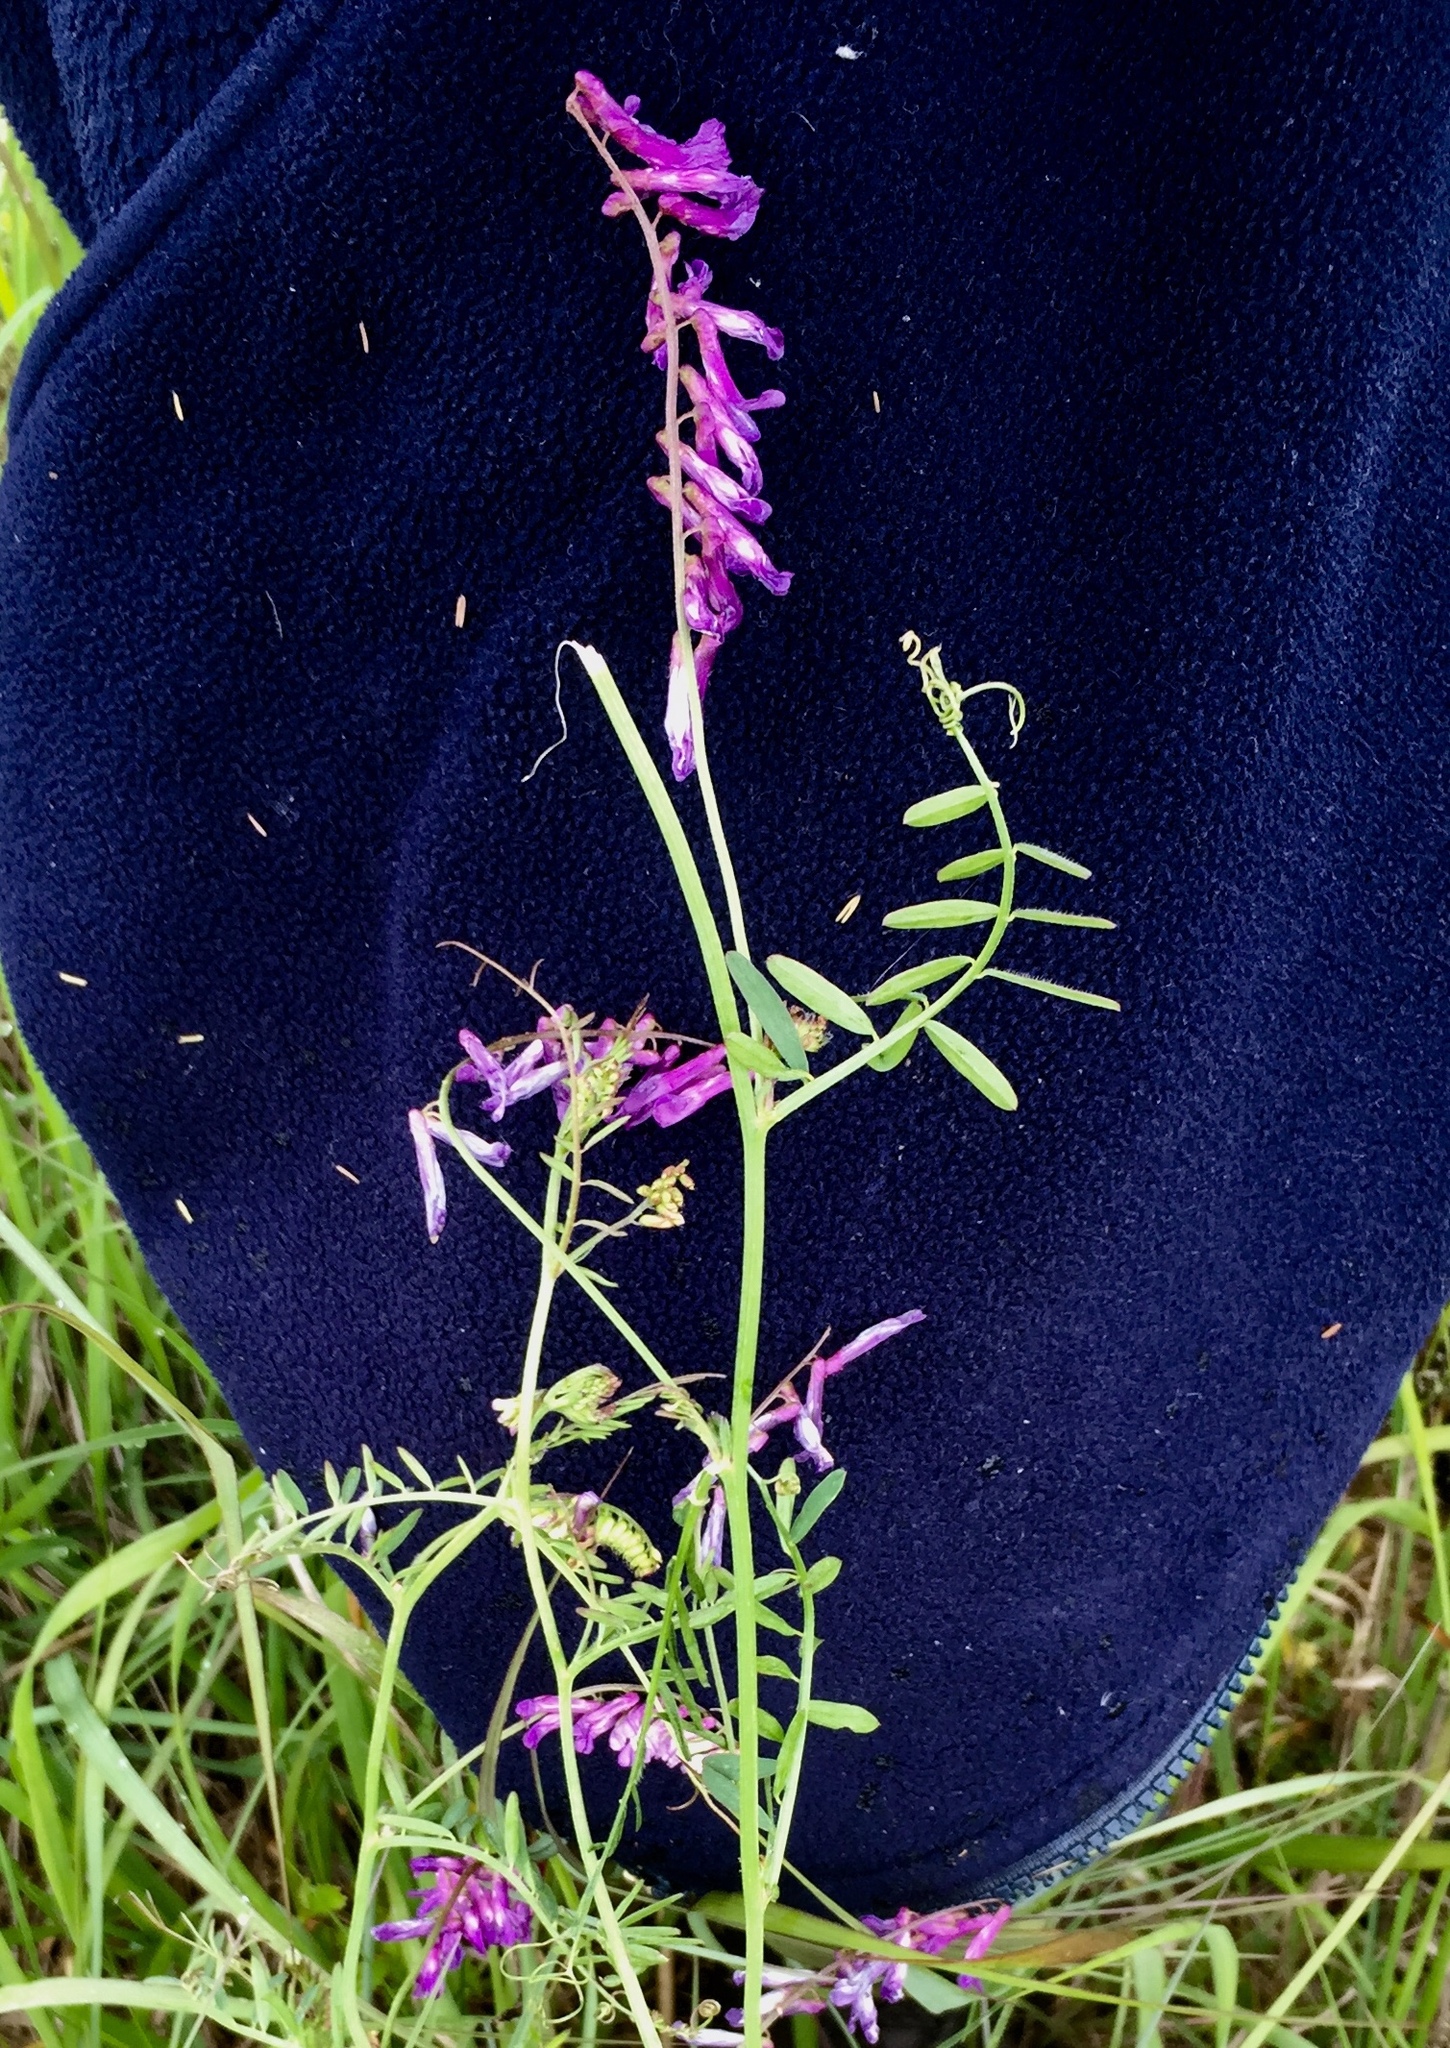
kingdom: Plantae
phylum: Tracheophyta
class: Magnoliopsida
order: Fabales
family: Fabaceae
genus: Vicia
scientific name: Vicia villosa
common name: Fodder vetch
